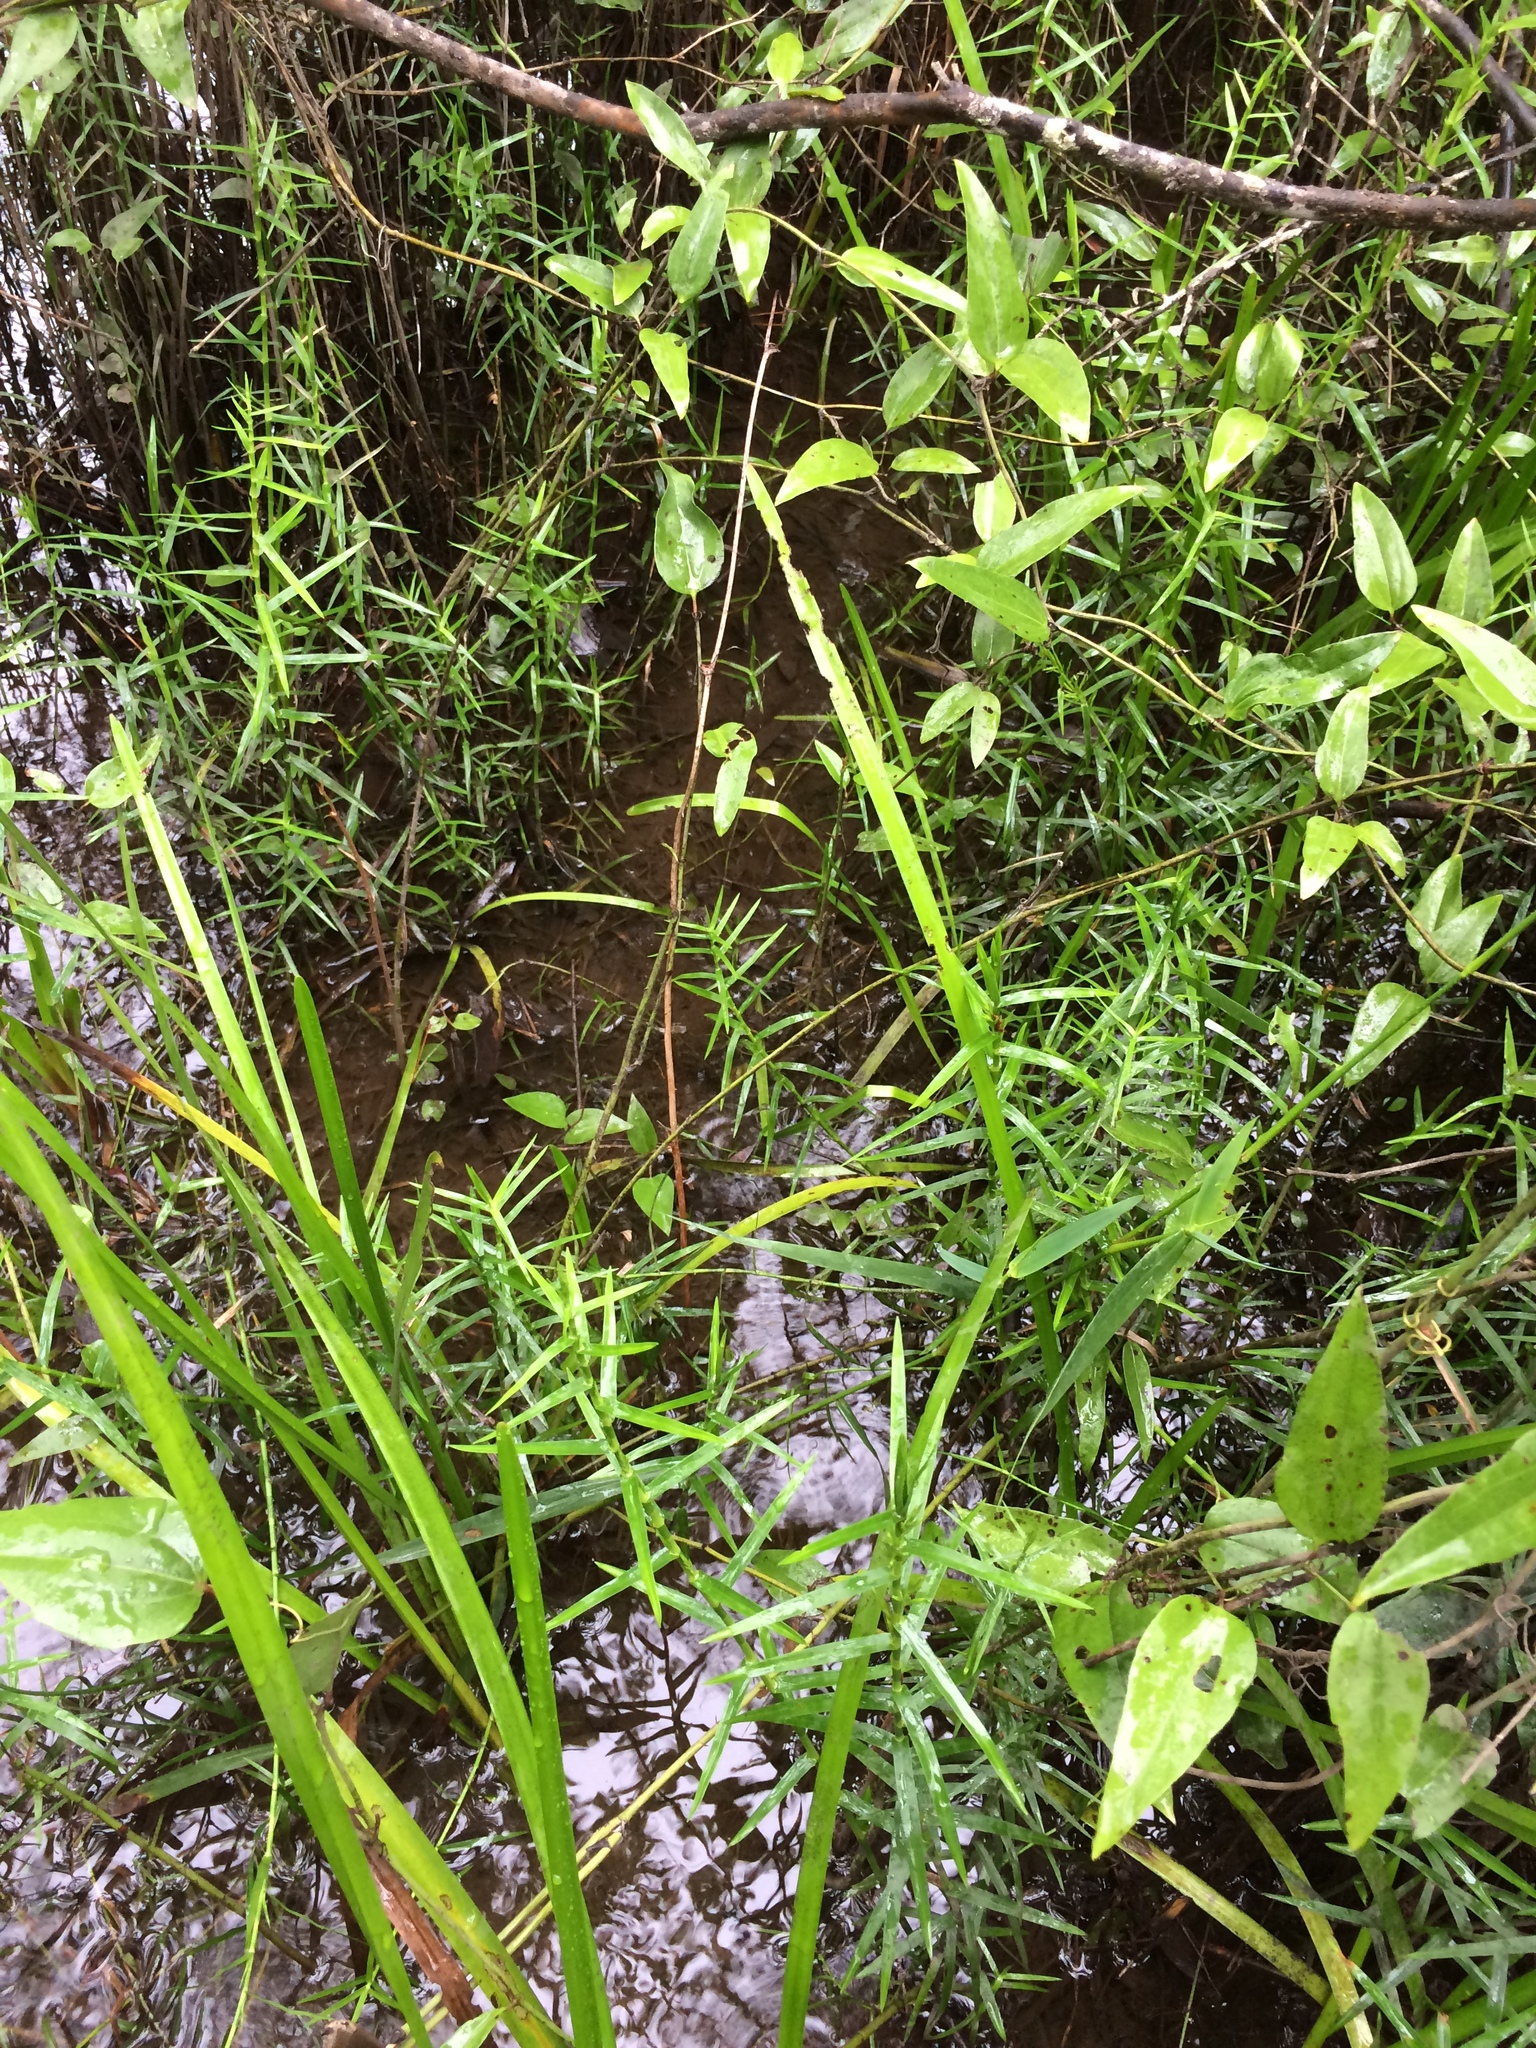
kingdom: Plantae
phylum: Tracheophyta
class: Liliopsida
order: Poales
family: Cyperaceae
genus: Dulichium
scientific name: Dulichium arundinaceum
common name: Three-way sedge
